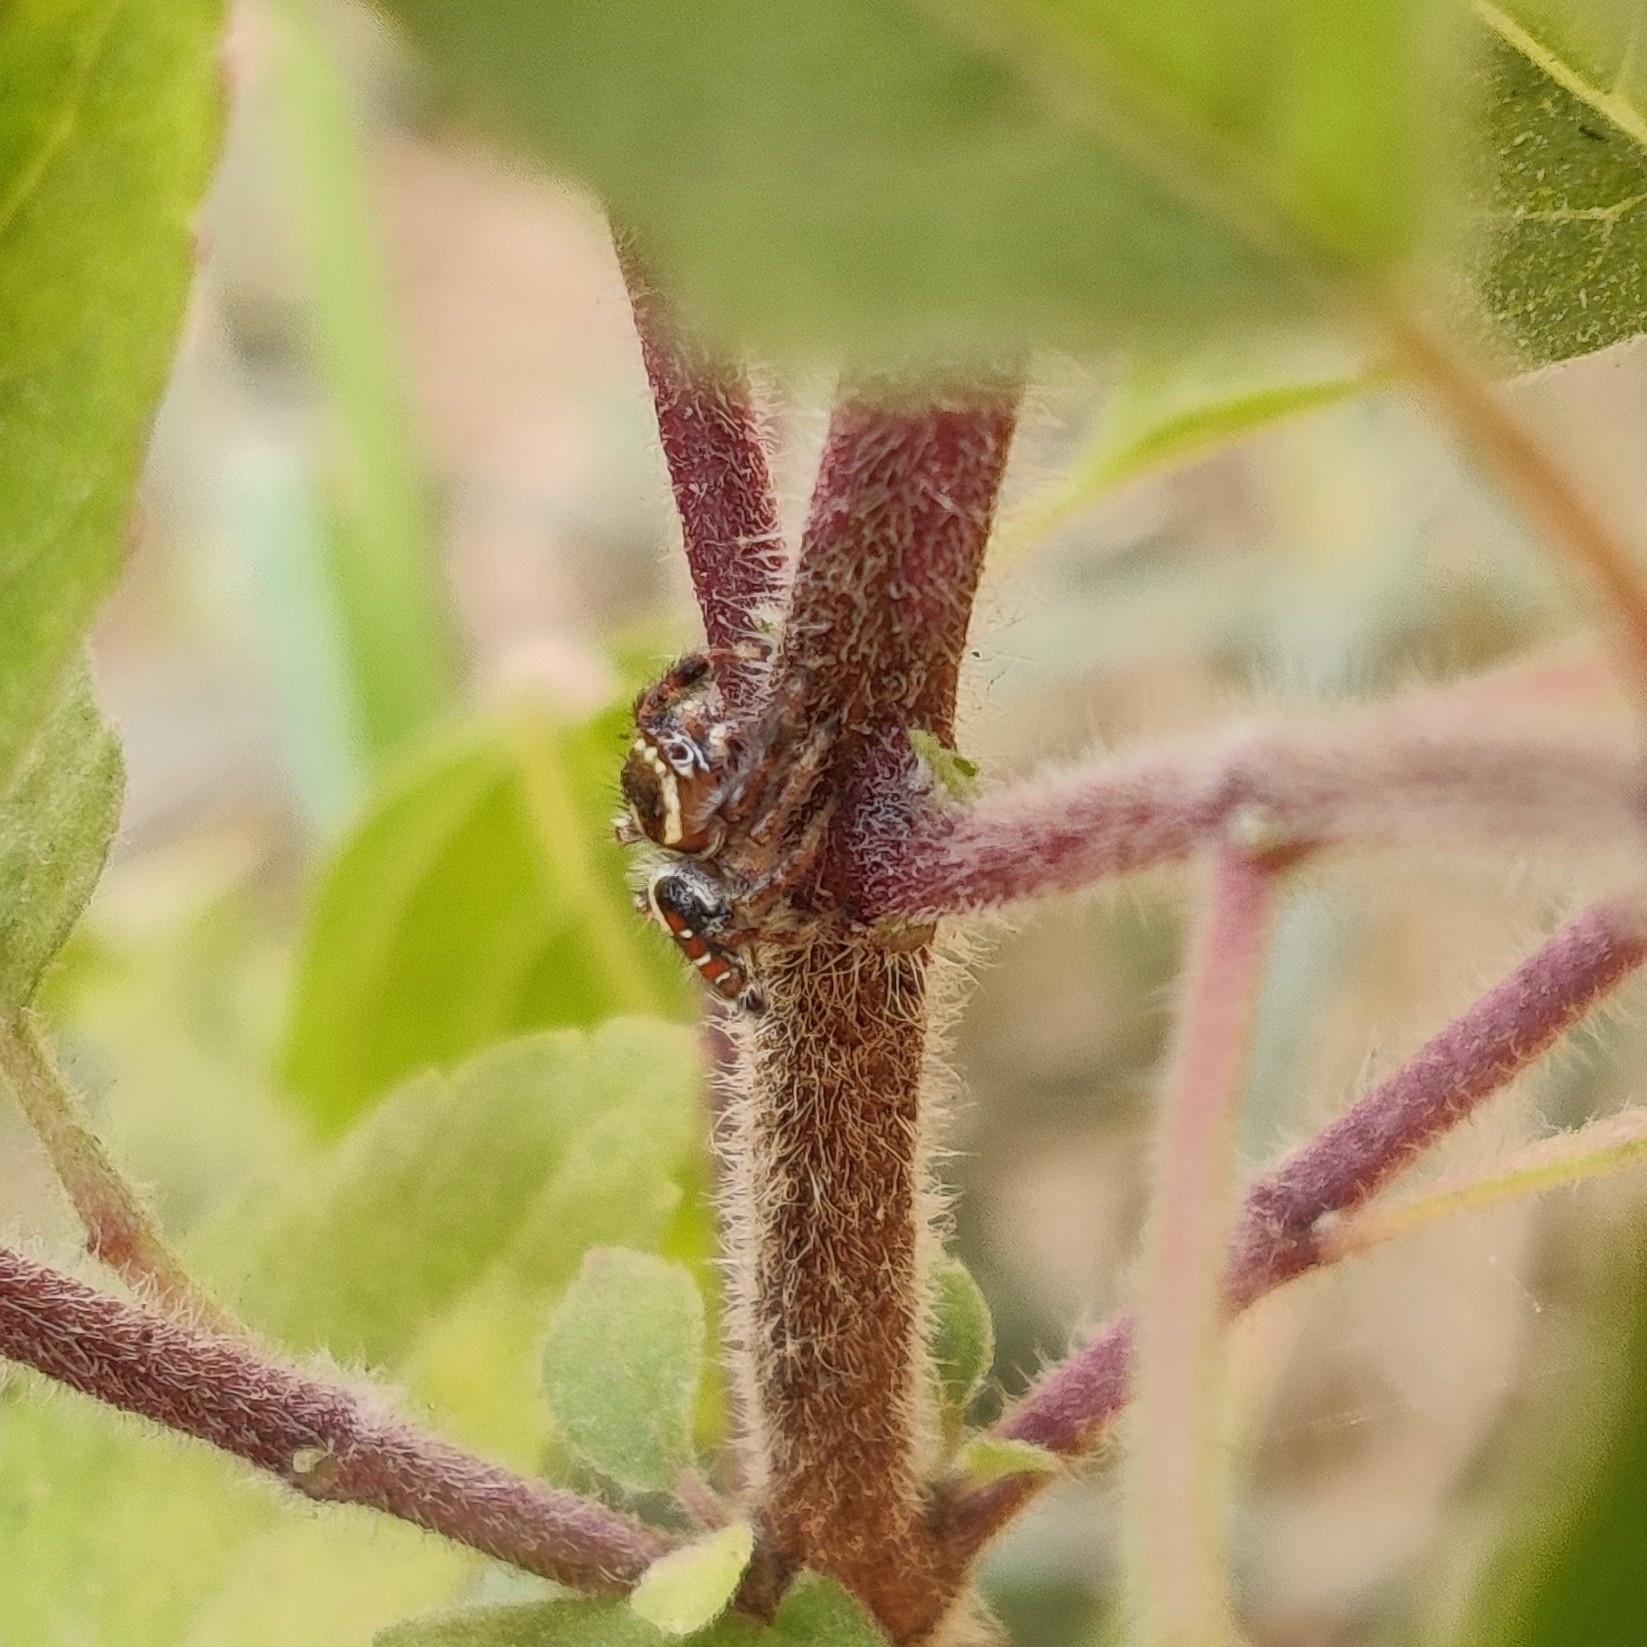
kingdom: Animalia
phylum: Arthropoda
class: Arachnida
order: Araneae
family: Salticidae
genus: Thyene
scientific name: Thyene imperialis
